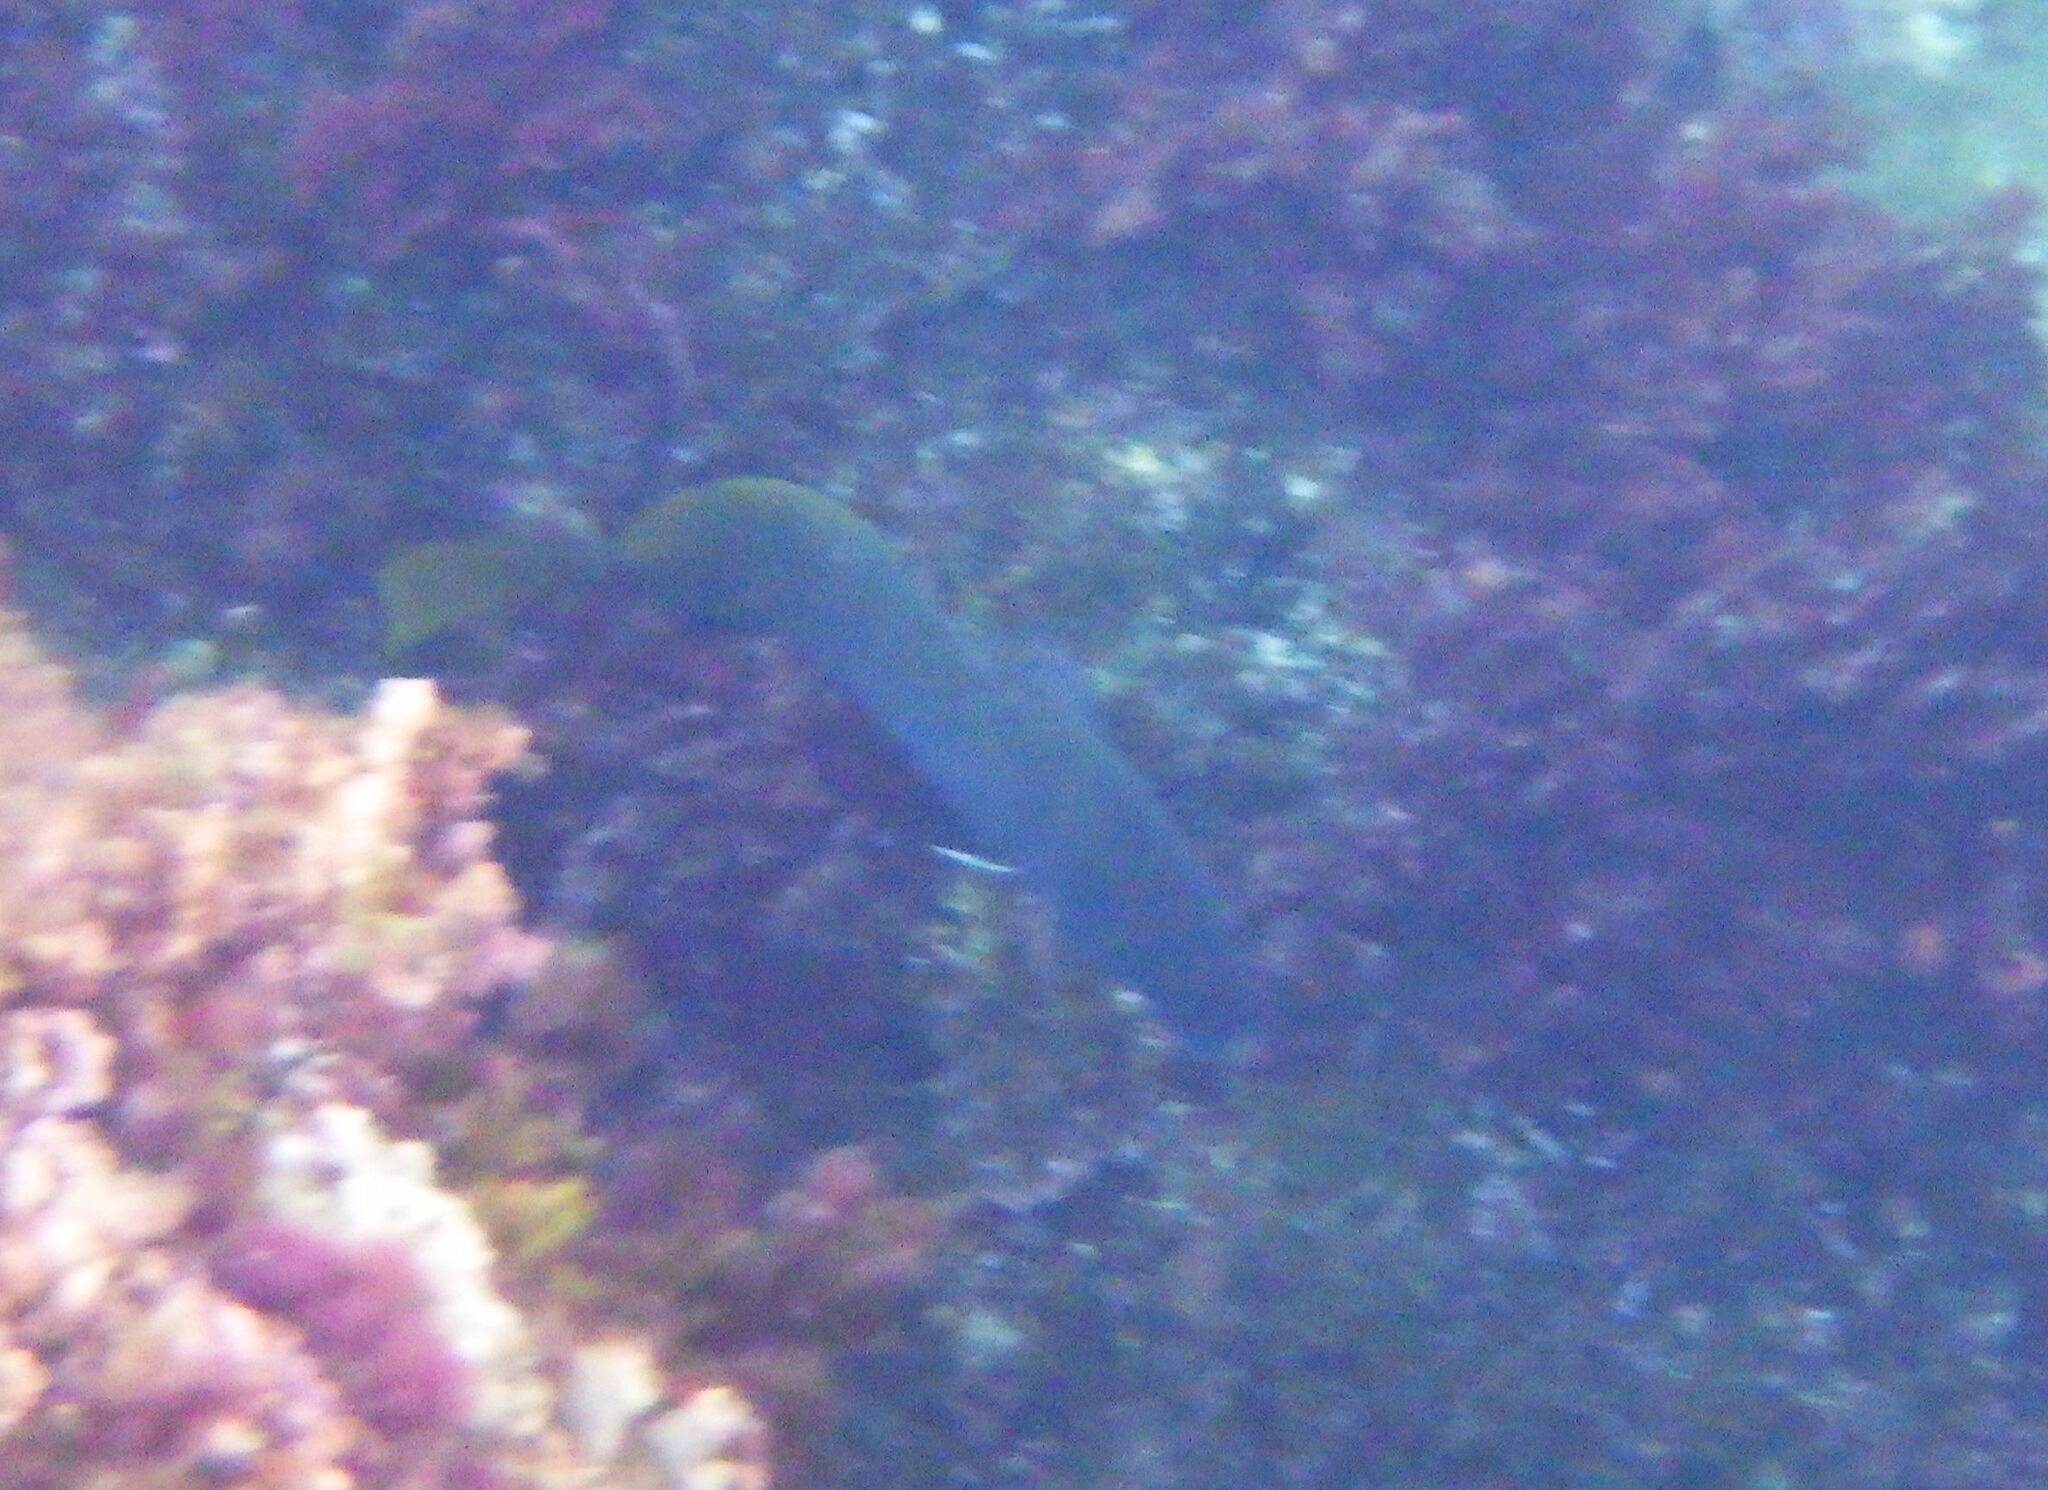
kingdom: Animalia
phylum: Chordata
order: Perciformes
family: Sciaenidae
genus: Sciaena
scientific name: Sciaena umbra
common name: Brown meagre
